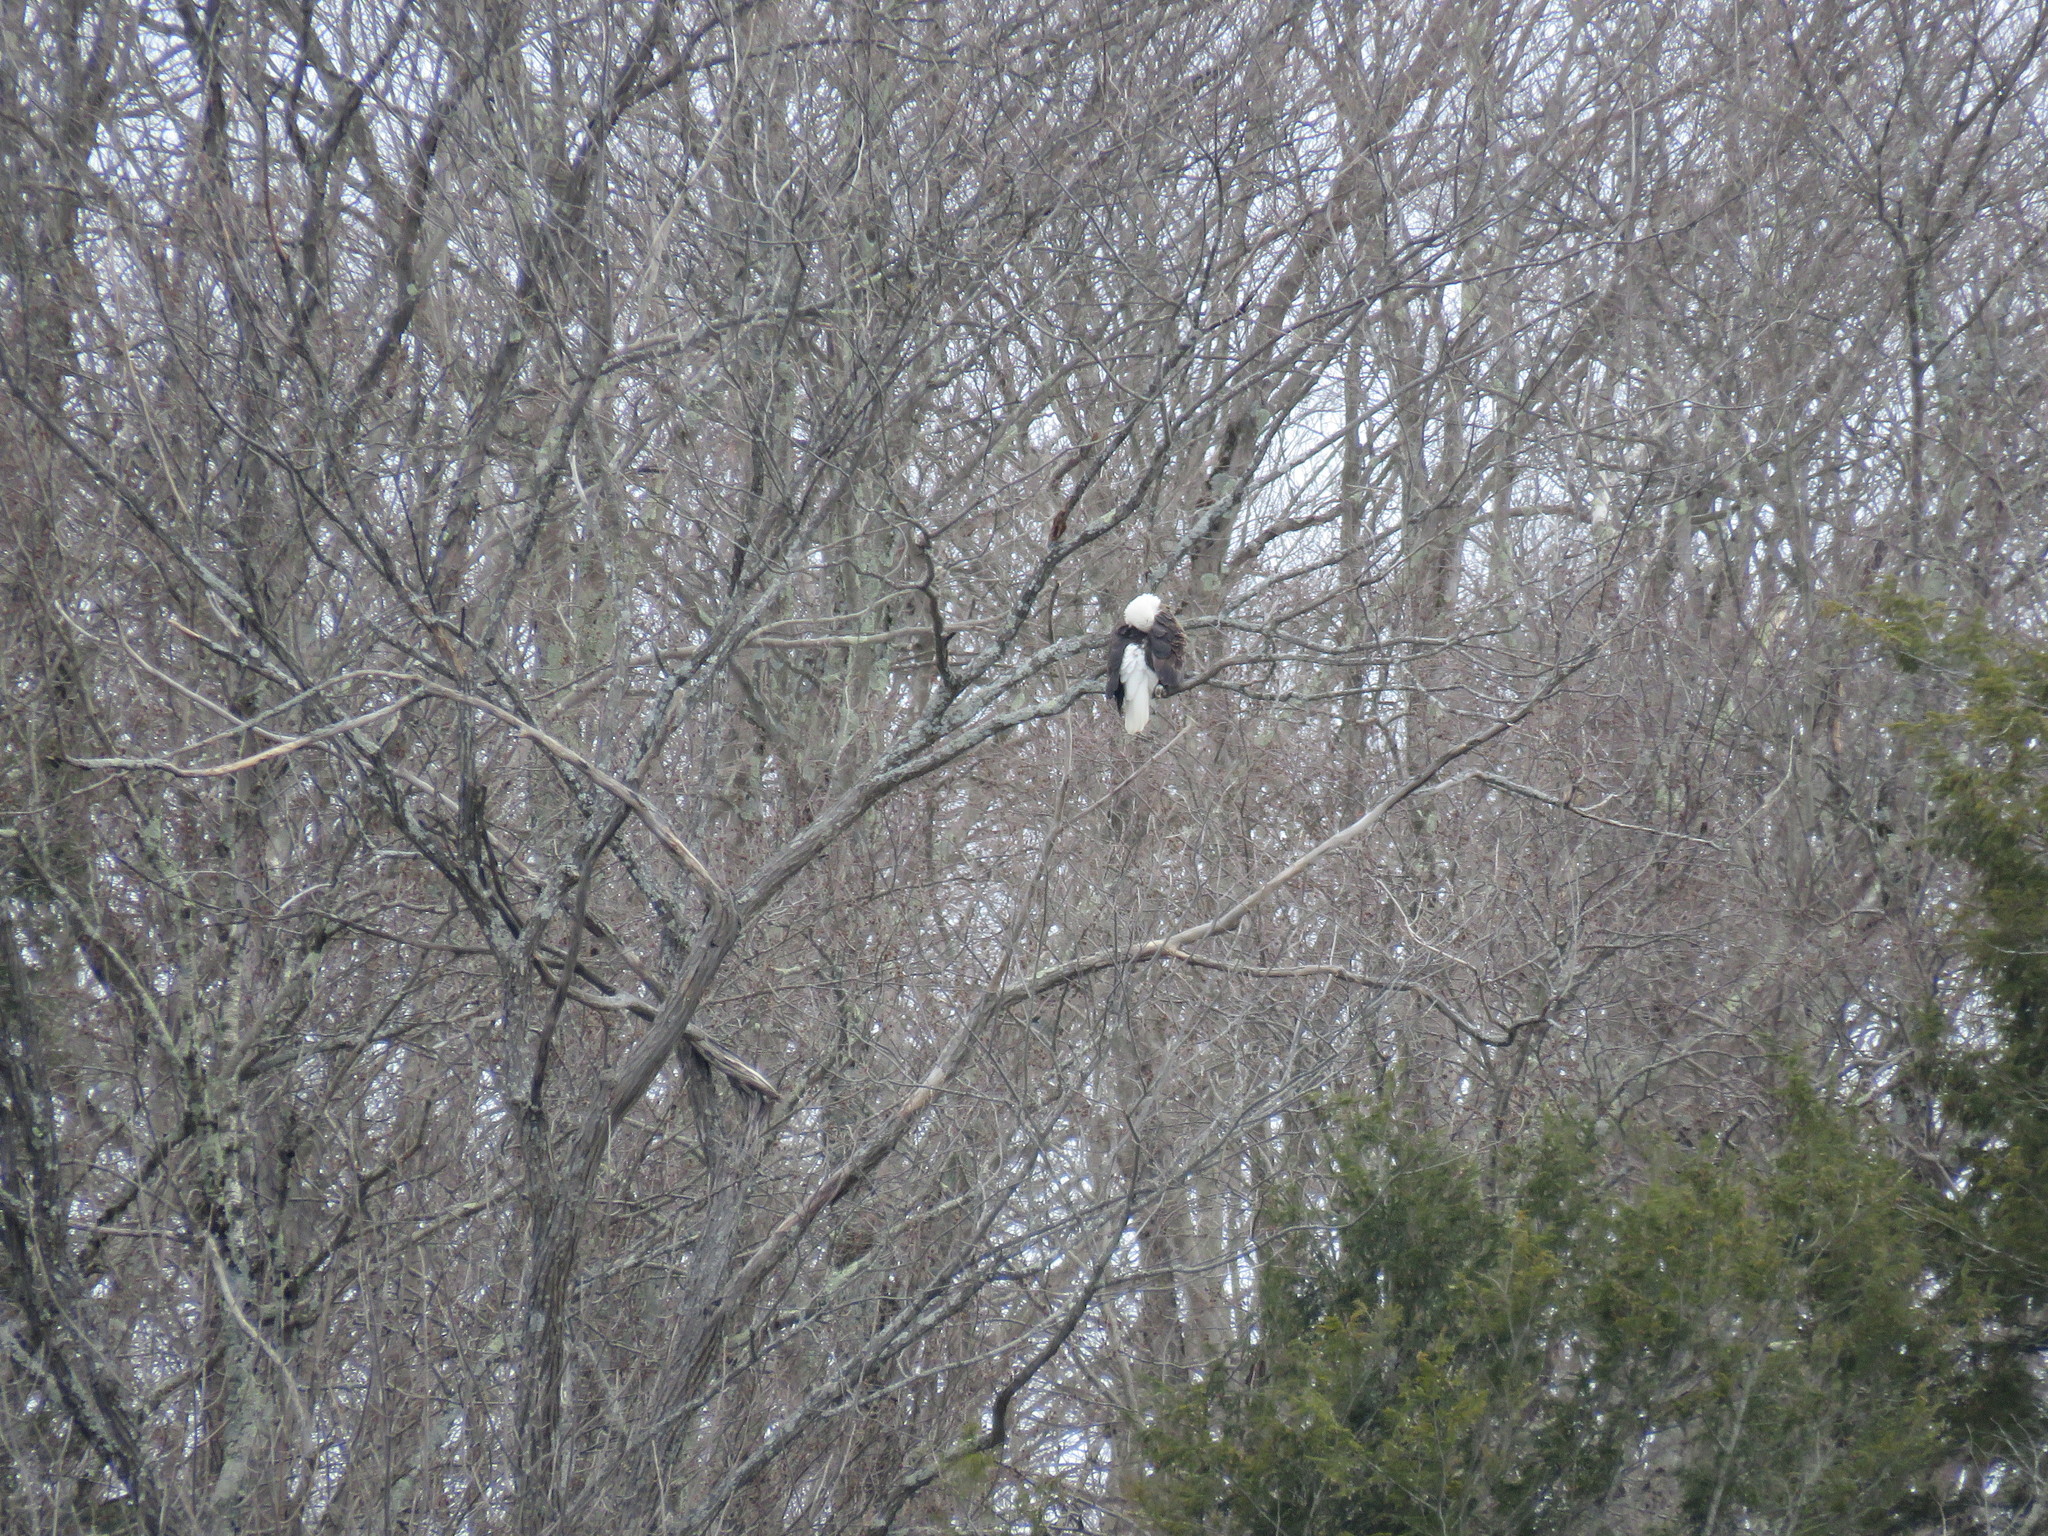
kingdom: Animalia
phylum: Chordata
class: Aves
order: Accipitriformes
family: Accipitridae
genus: Haliaeetus
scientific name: Haliaeetus leucocephalus
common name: Bald eagle
